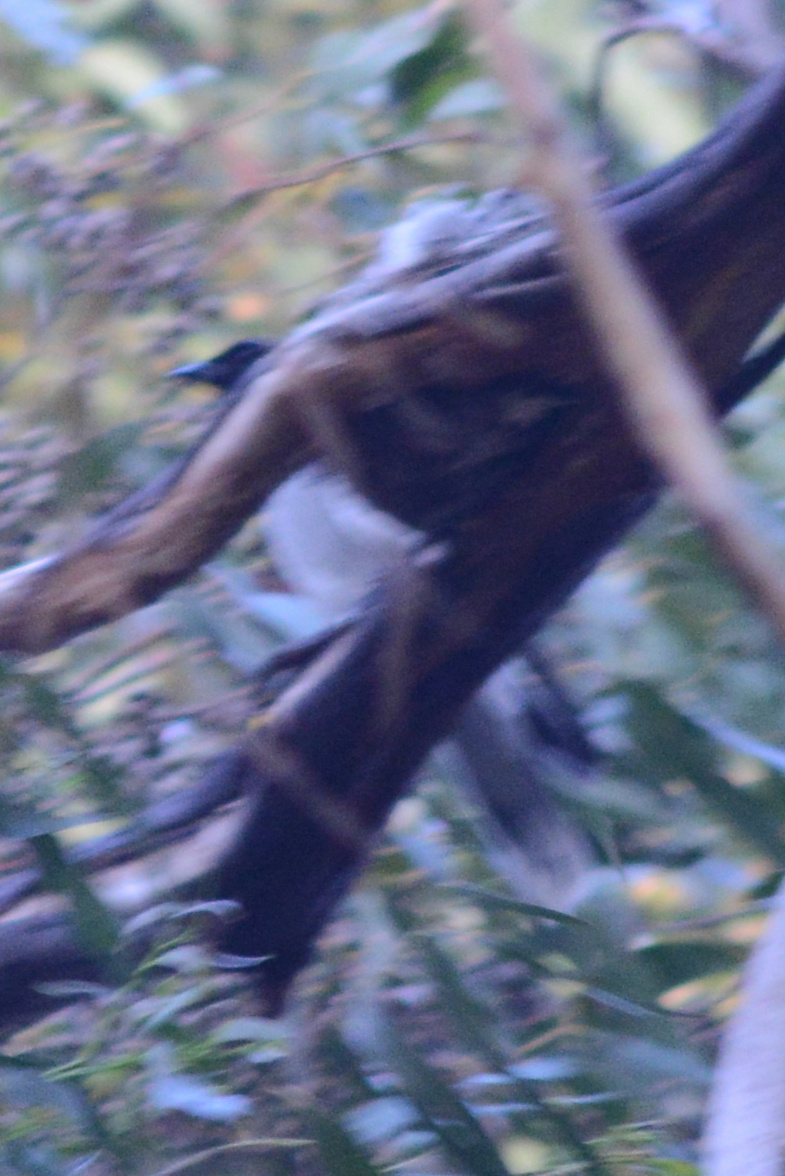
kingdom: Animalia
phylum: Chordata
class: Aves
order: Passeriformes
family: Campephagidae
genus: Coracina
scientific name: Coracina novaehollandiae
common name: Black-faced cuckooshrike
